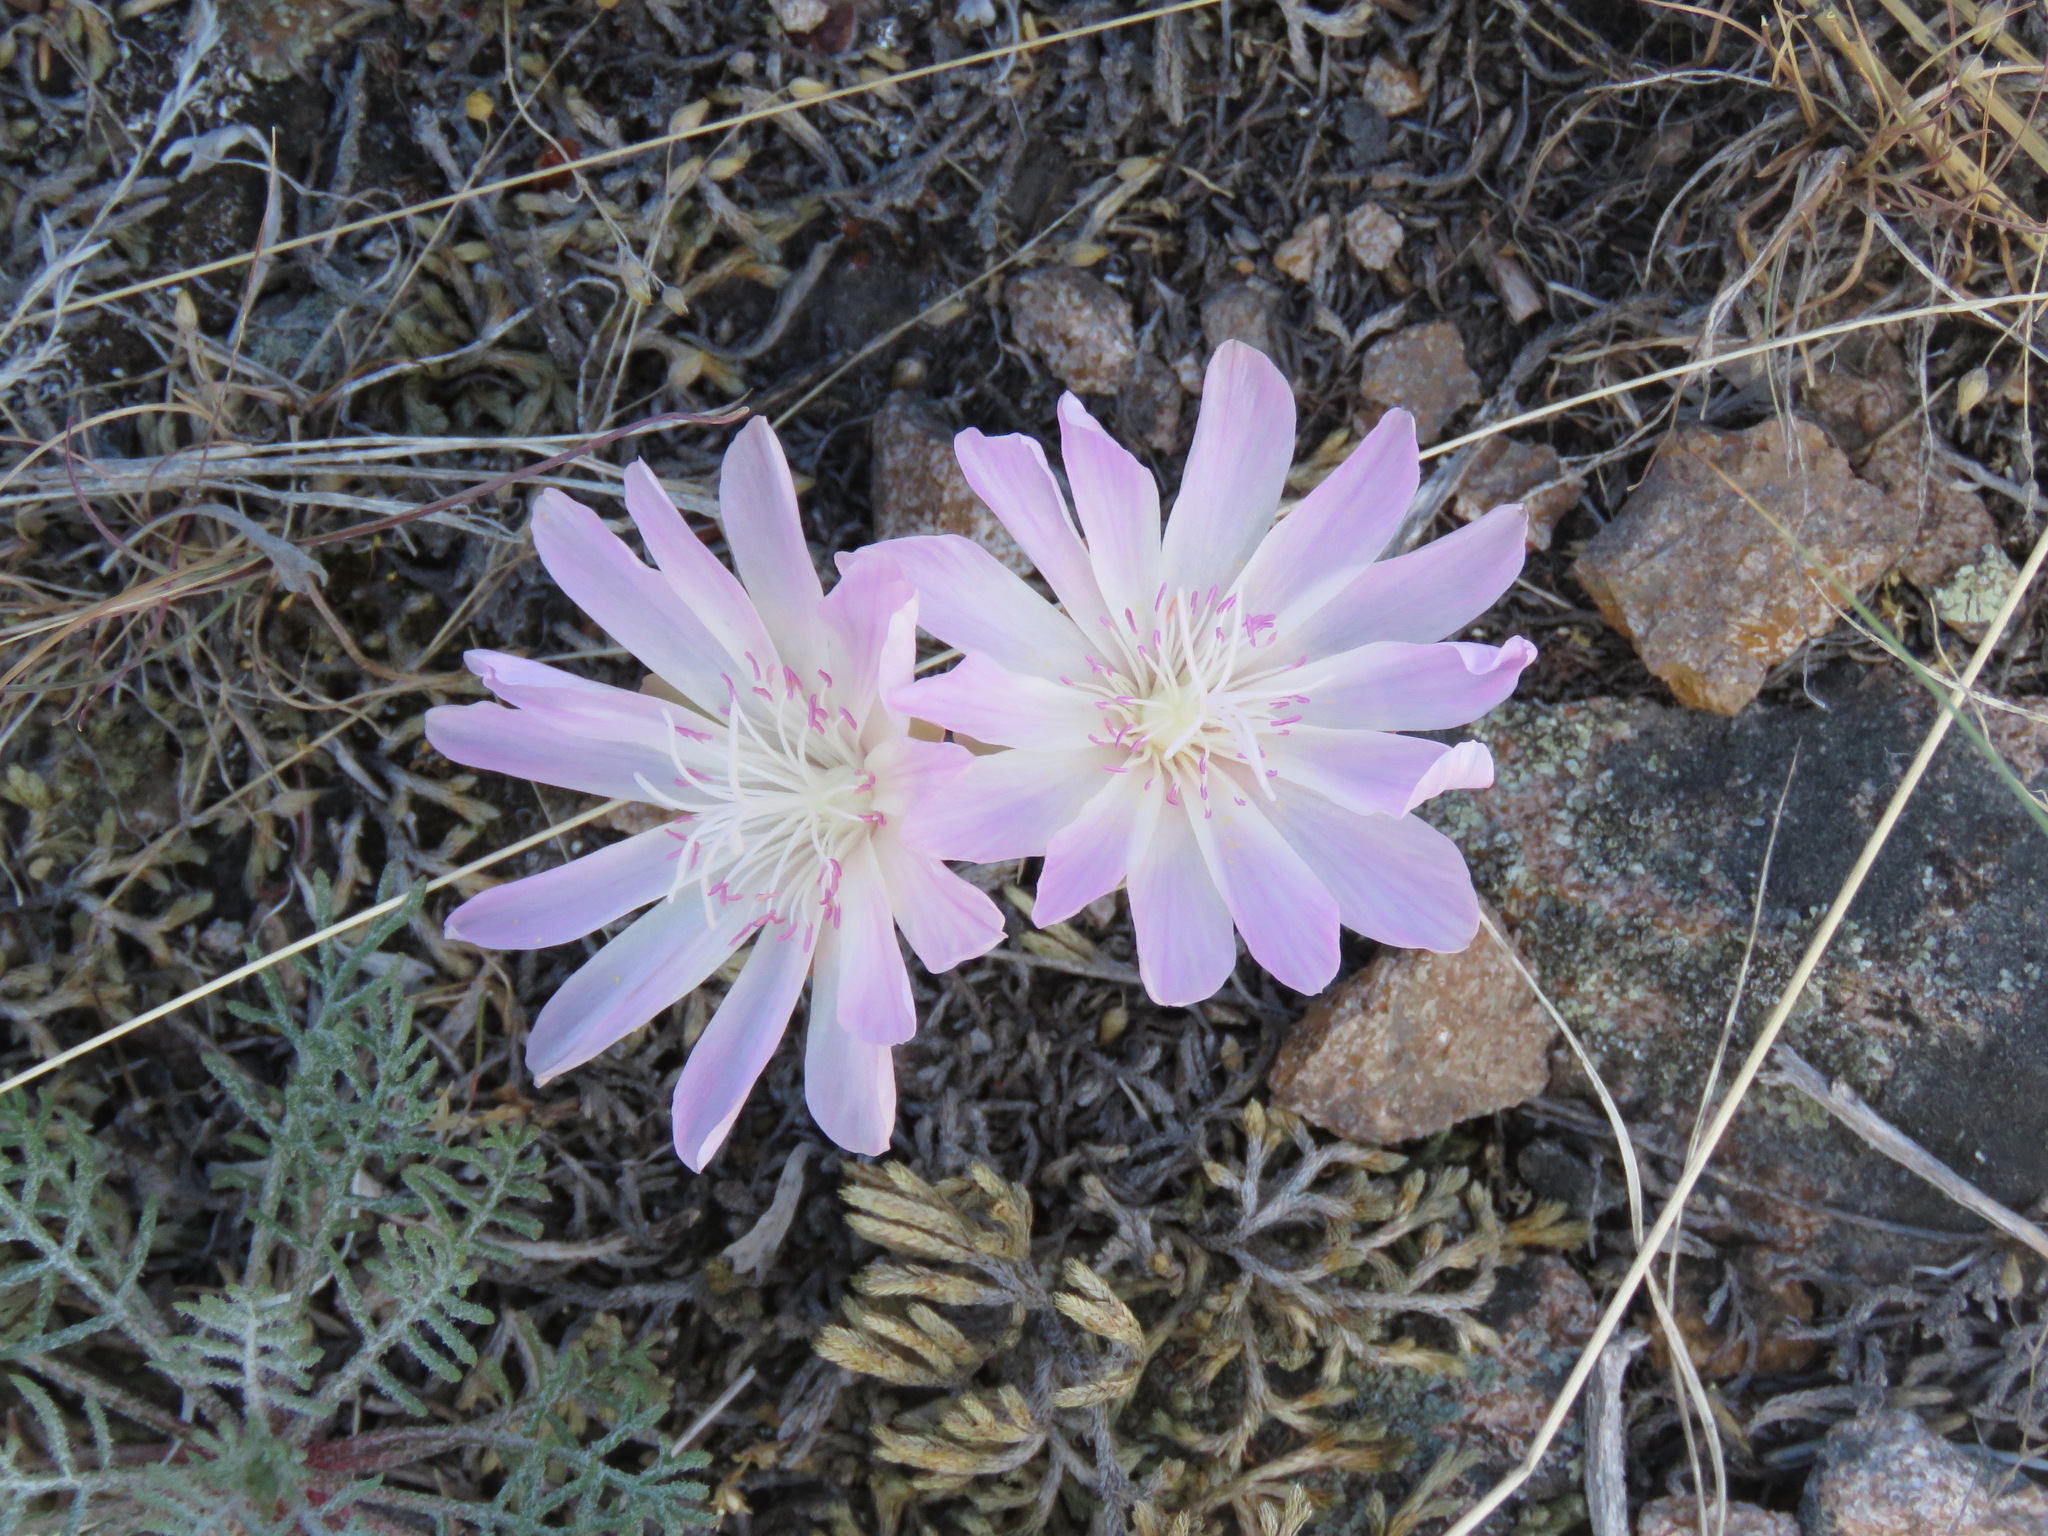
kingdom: Plantae
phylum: Tracheophyta
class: Magnoliopsida
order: Caryophyllales
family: Montiaceae
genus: Lewisia
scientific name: Lewisia rediviva
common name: Bitter-root
